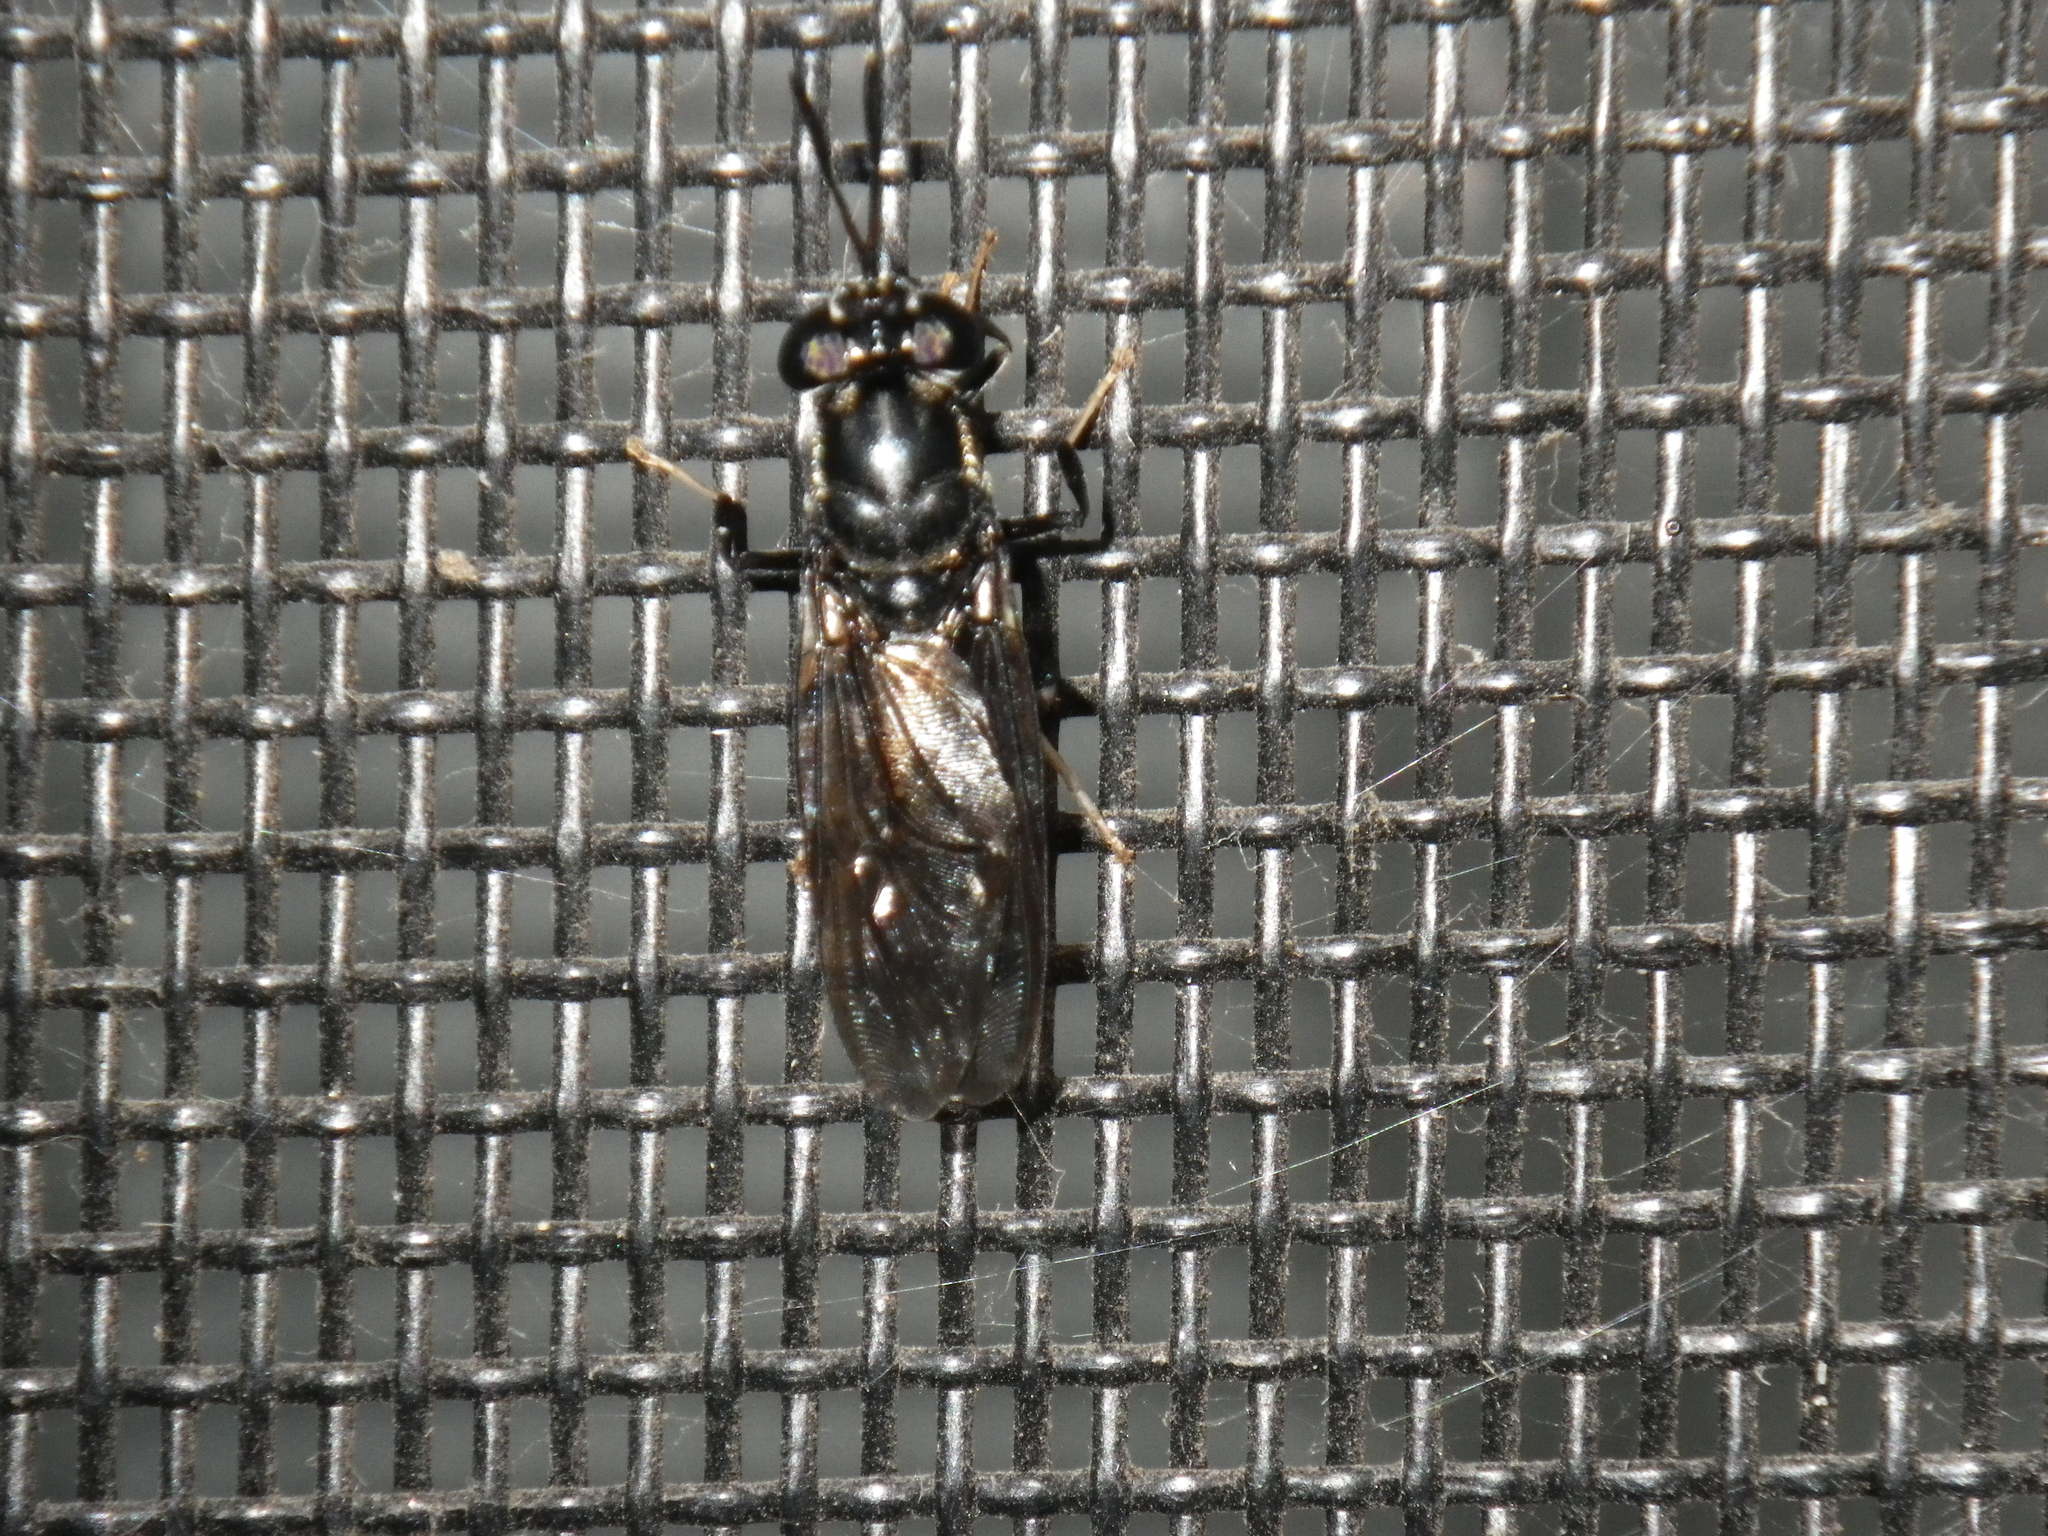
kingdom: Animalia
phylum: Arthropoda
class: Insecta
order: Diptera
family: Stratiomyidae
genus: Hermetia
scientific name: Hermetia illucens
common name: Black soldier fly
